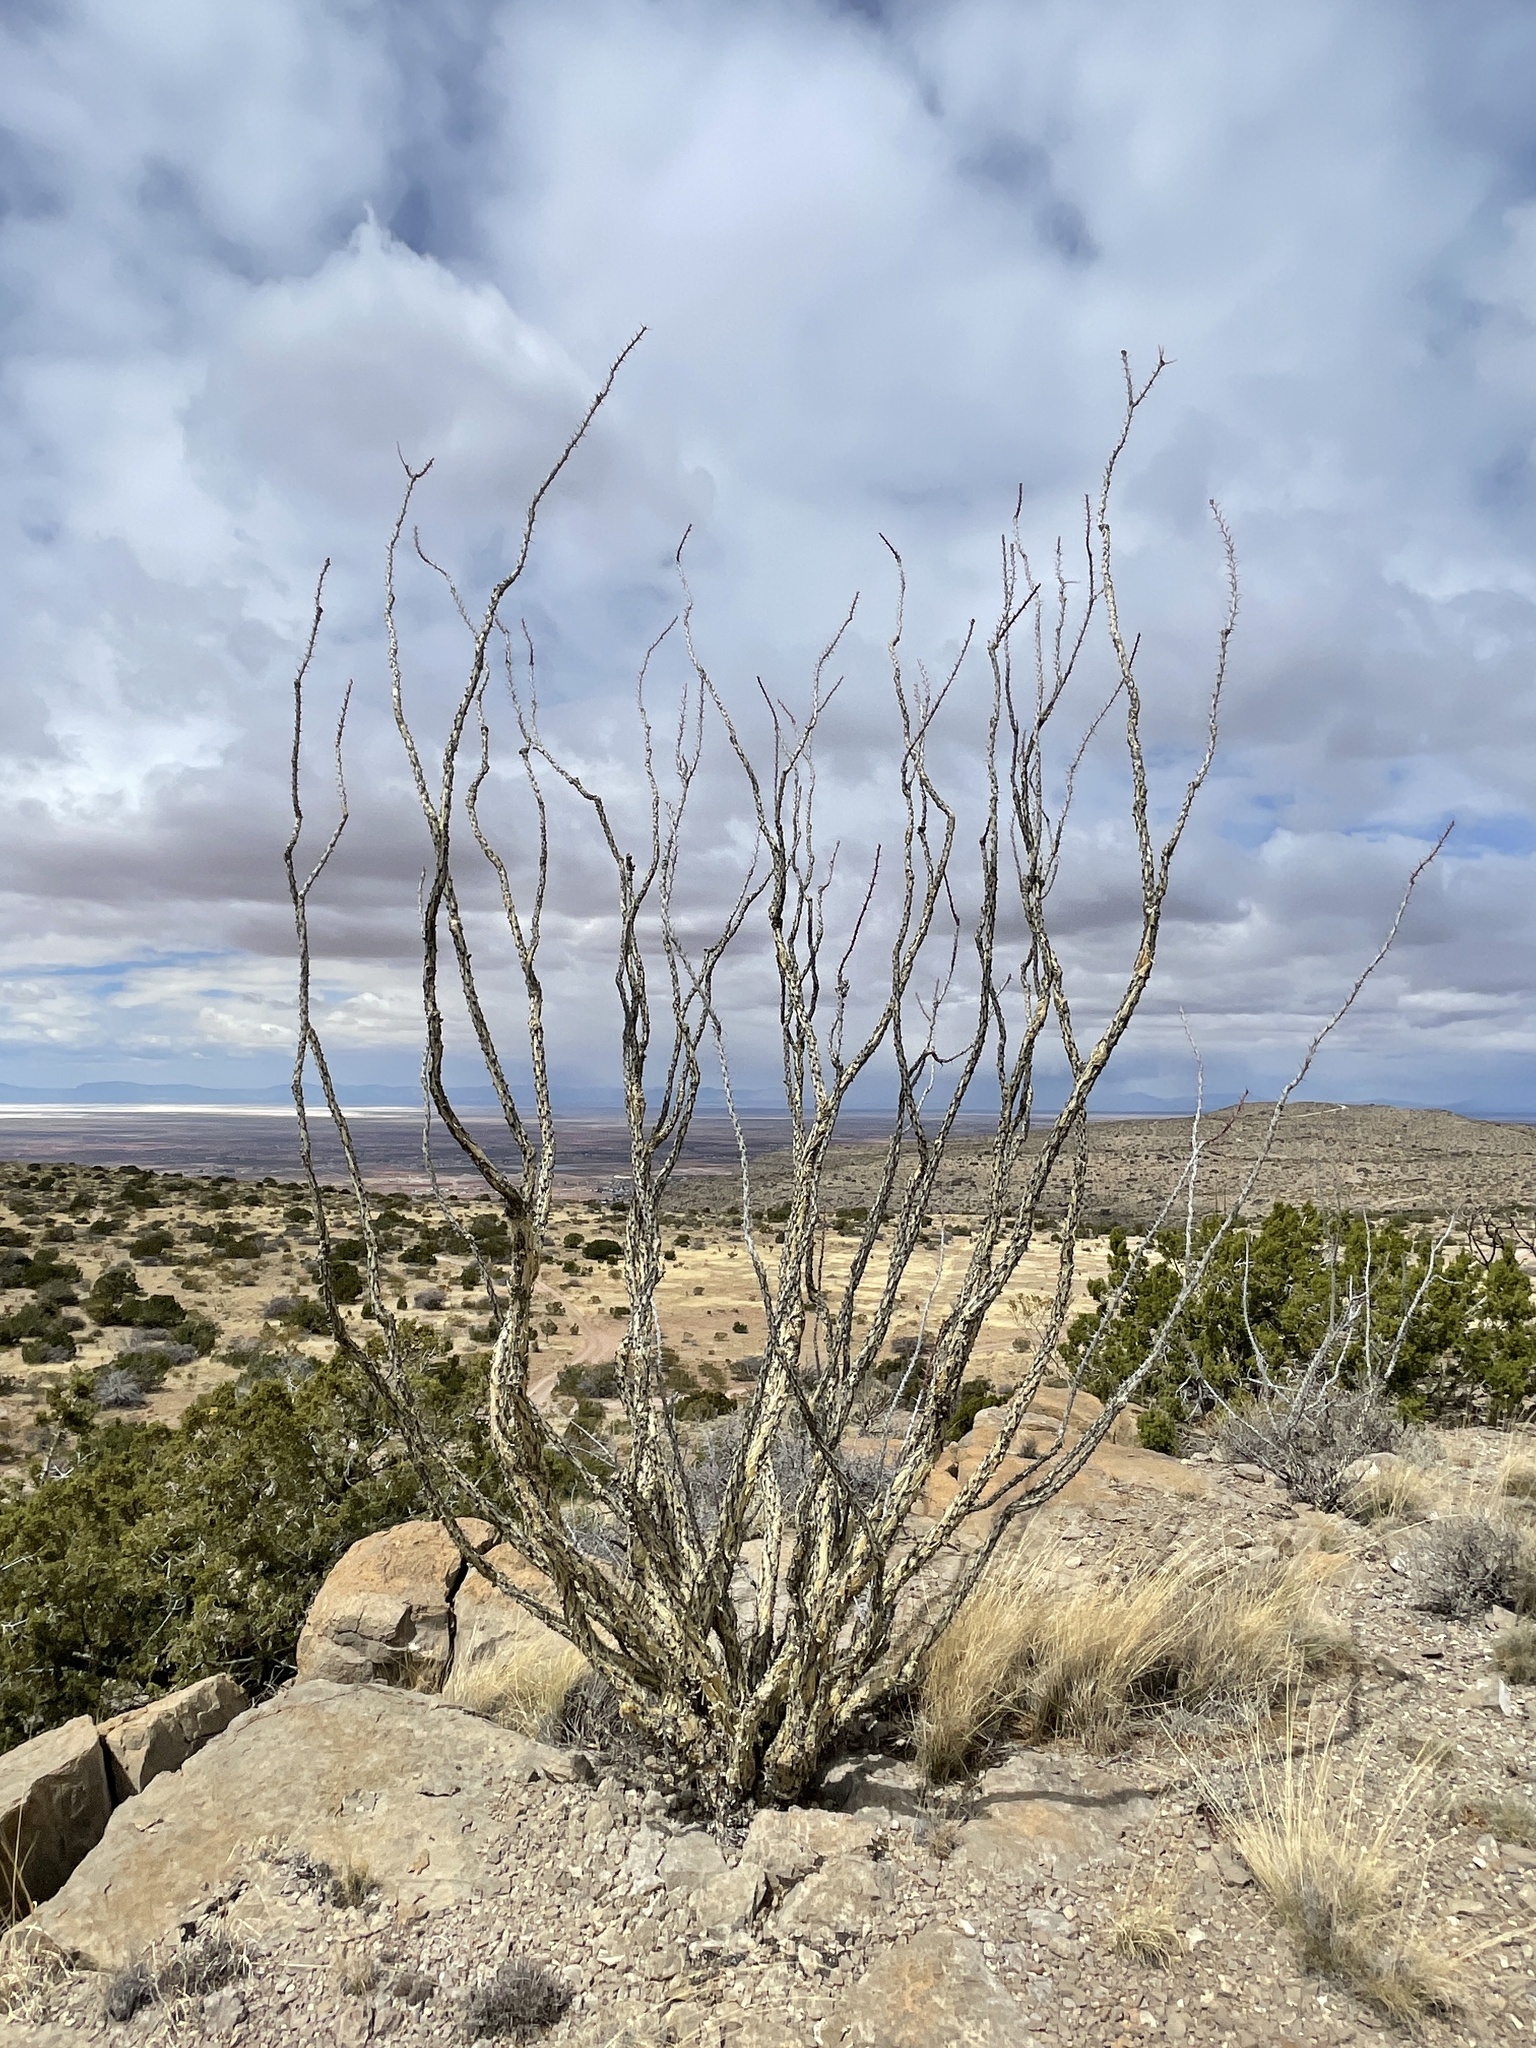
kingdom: Plantae
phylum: Tracheophyta
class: Magnoliopsida
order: Ericales
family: Fouquieriaceae
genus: Fouquieria
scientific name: Fouquieria splendens
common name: Vine-cactus
